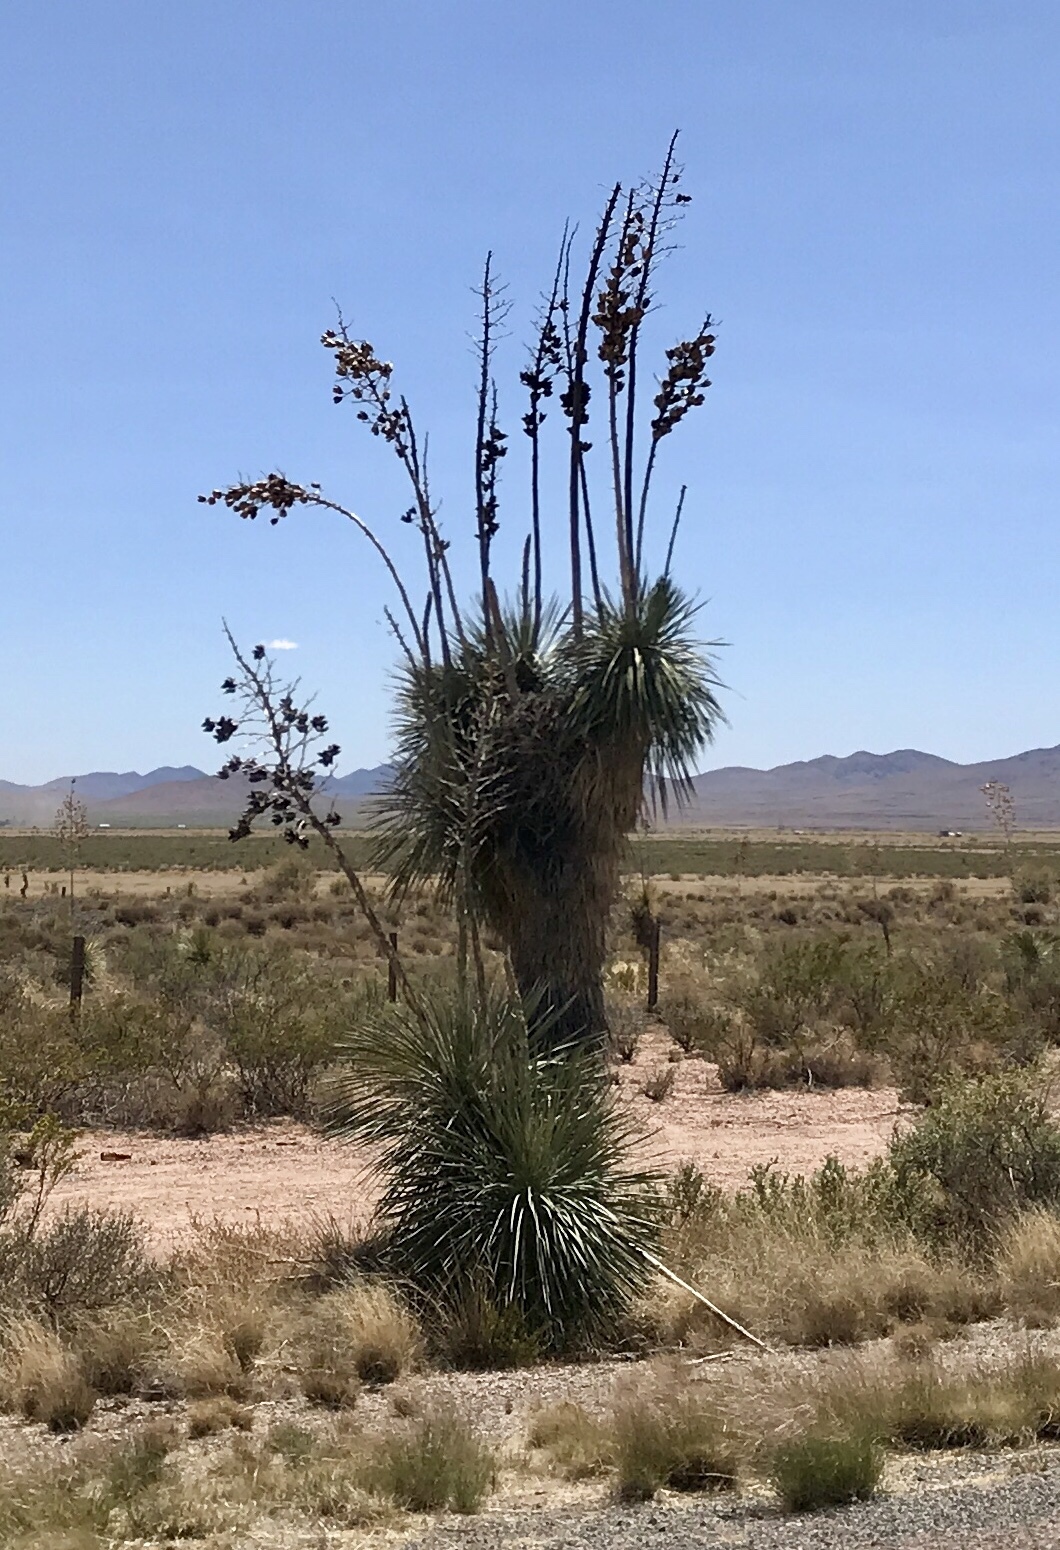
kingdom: Plantae
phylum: Tracheophyta
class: Liliopsida
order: Asparagales
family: Asparagaceae
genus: Yucca
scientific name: Yucca elata
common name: Palmella
